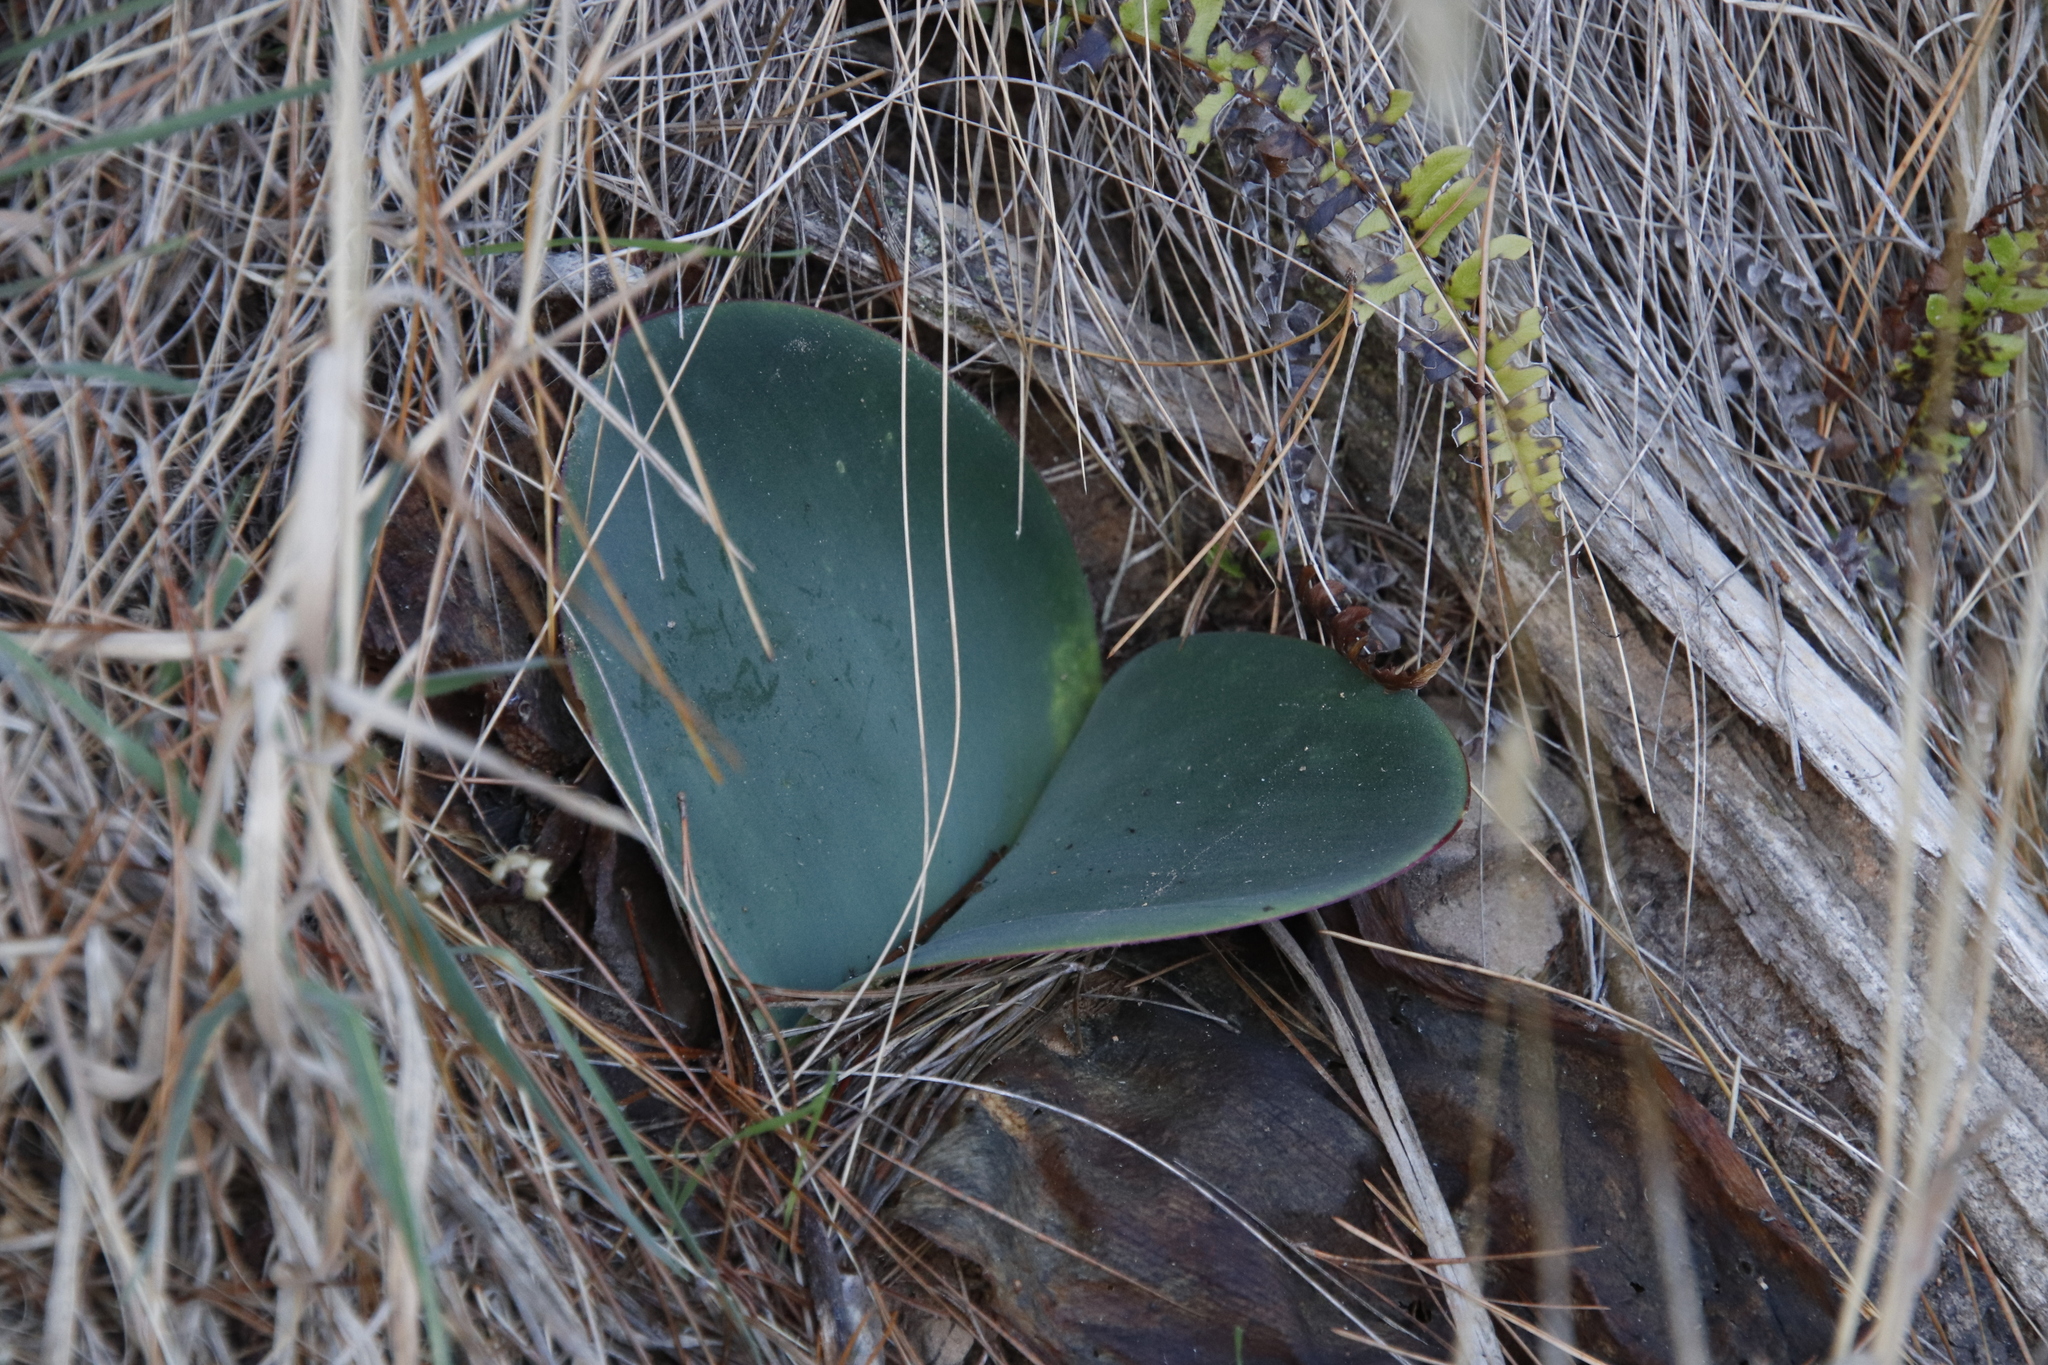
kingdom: Plantae
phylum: Tracheophyta
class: Liliopsida
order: Asparagales
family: Amaryllidaceae
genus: Haemanthus
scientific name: Haemanthus coccineus
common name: Cape-tulip
